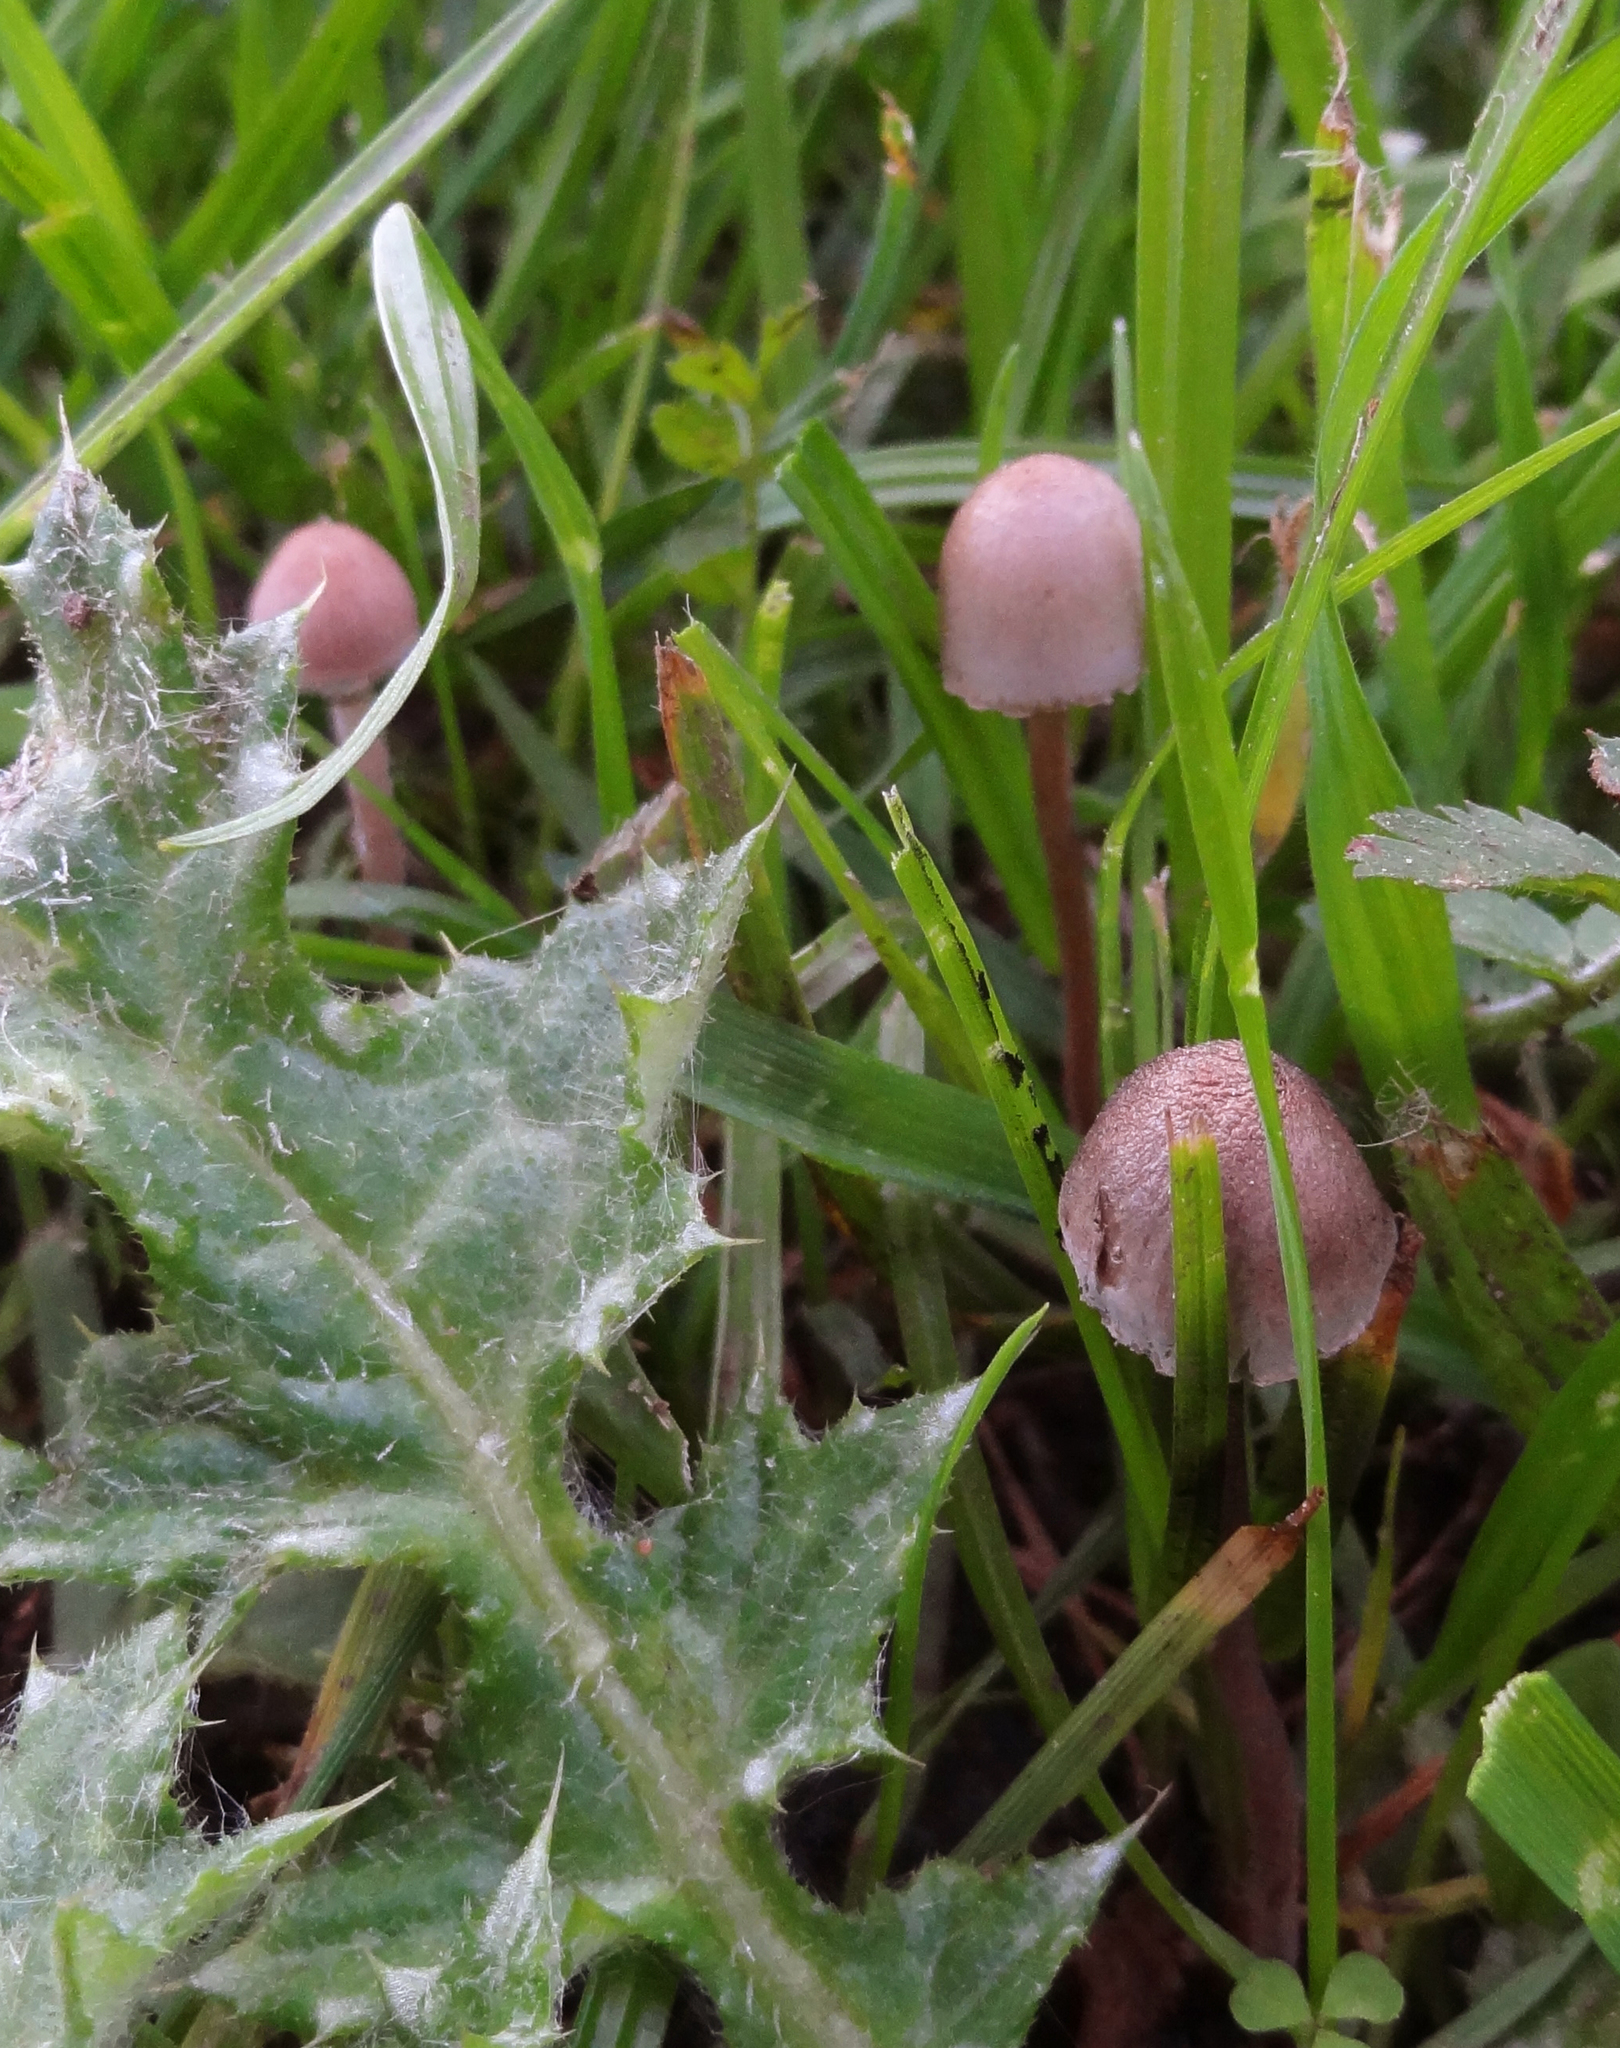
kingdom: Fungi
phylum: Basidiomycota
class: Agaricomycetes
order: Agaricales
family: Bolbitiaceae
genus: Panaeolus
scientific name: Panaeolus papilionaceus
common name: Petticoat mottlegill
